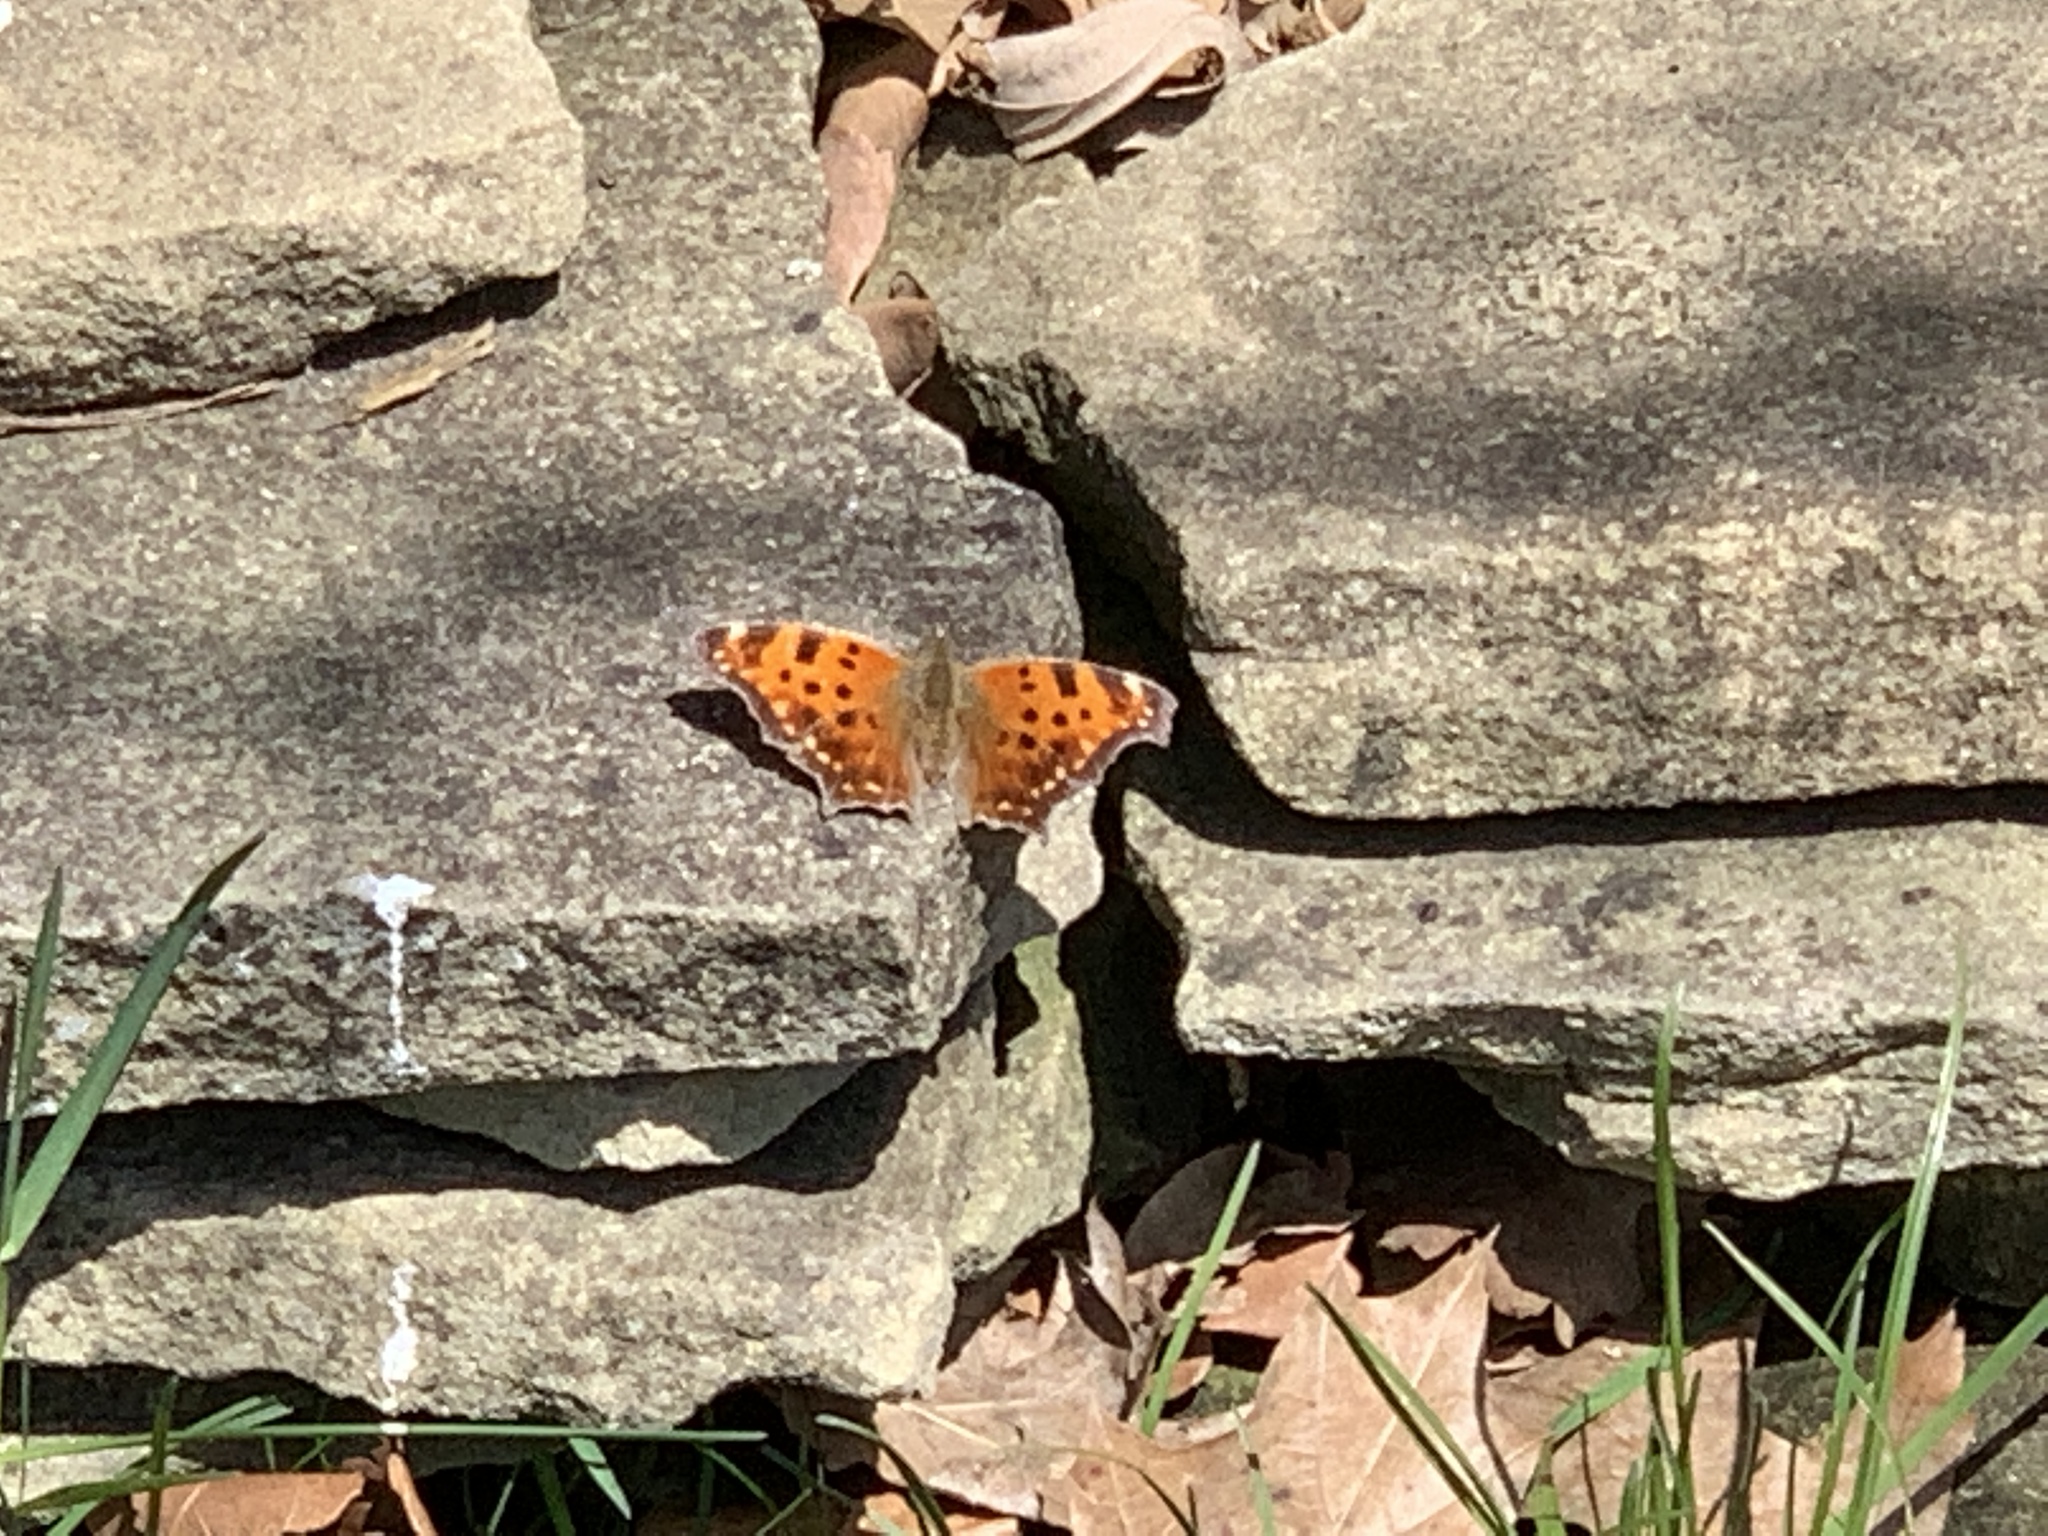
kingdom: Animalia
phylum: Arthropoda
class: Insecta
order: Lepidoptera
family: Nymphalidae
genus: Polygonia
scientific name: Polygonia comma
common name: Eastern comma
